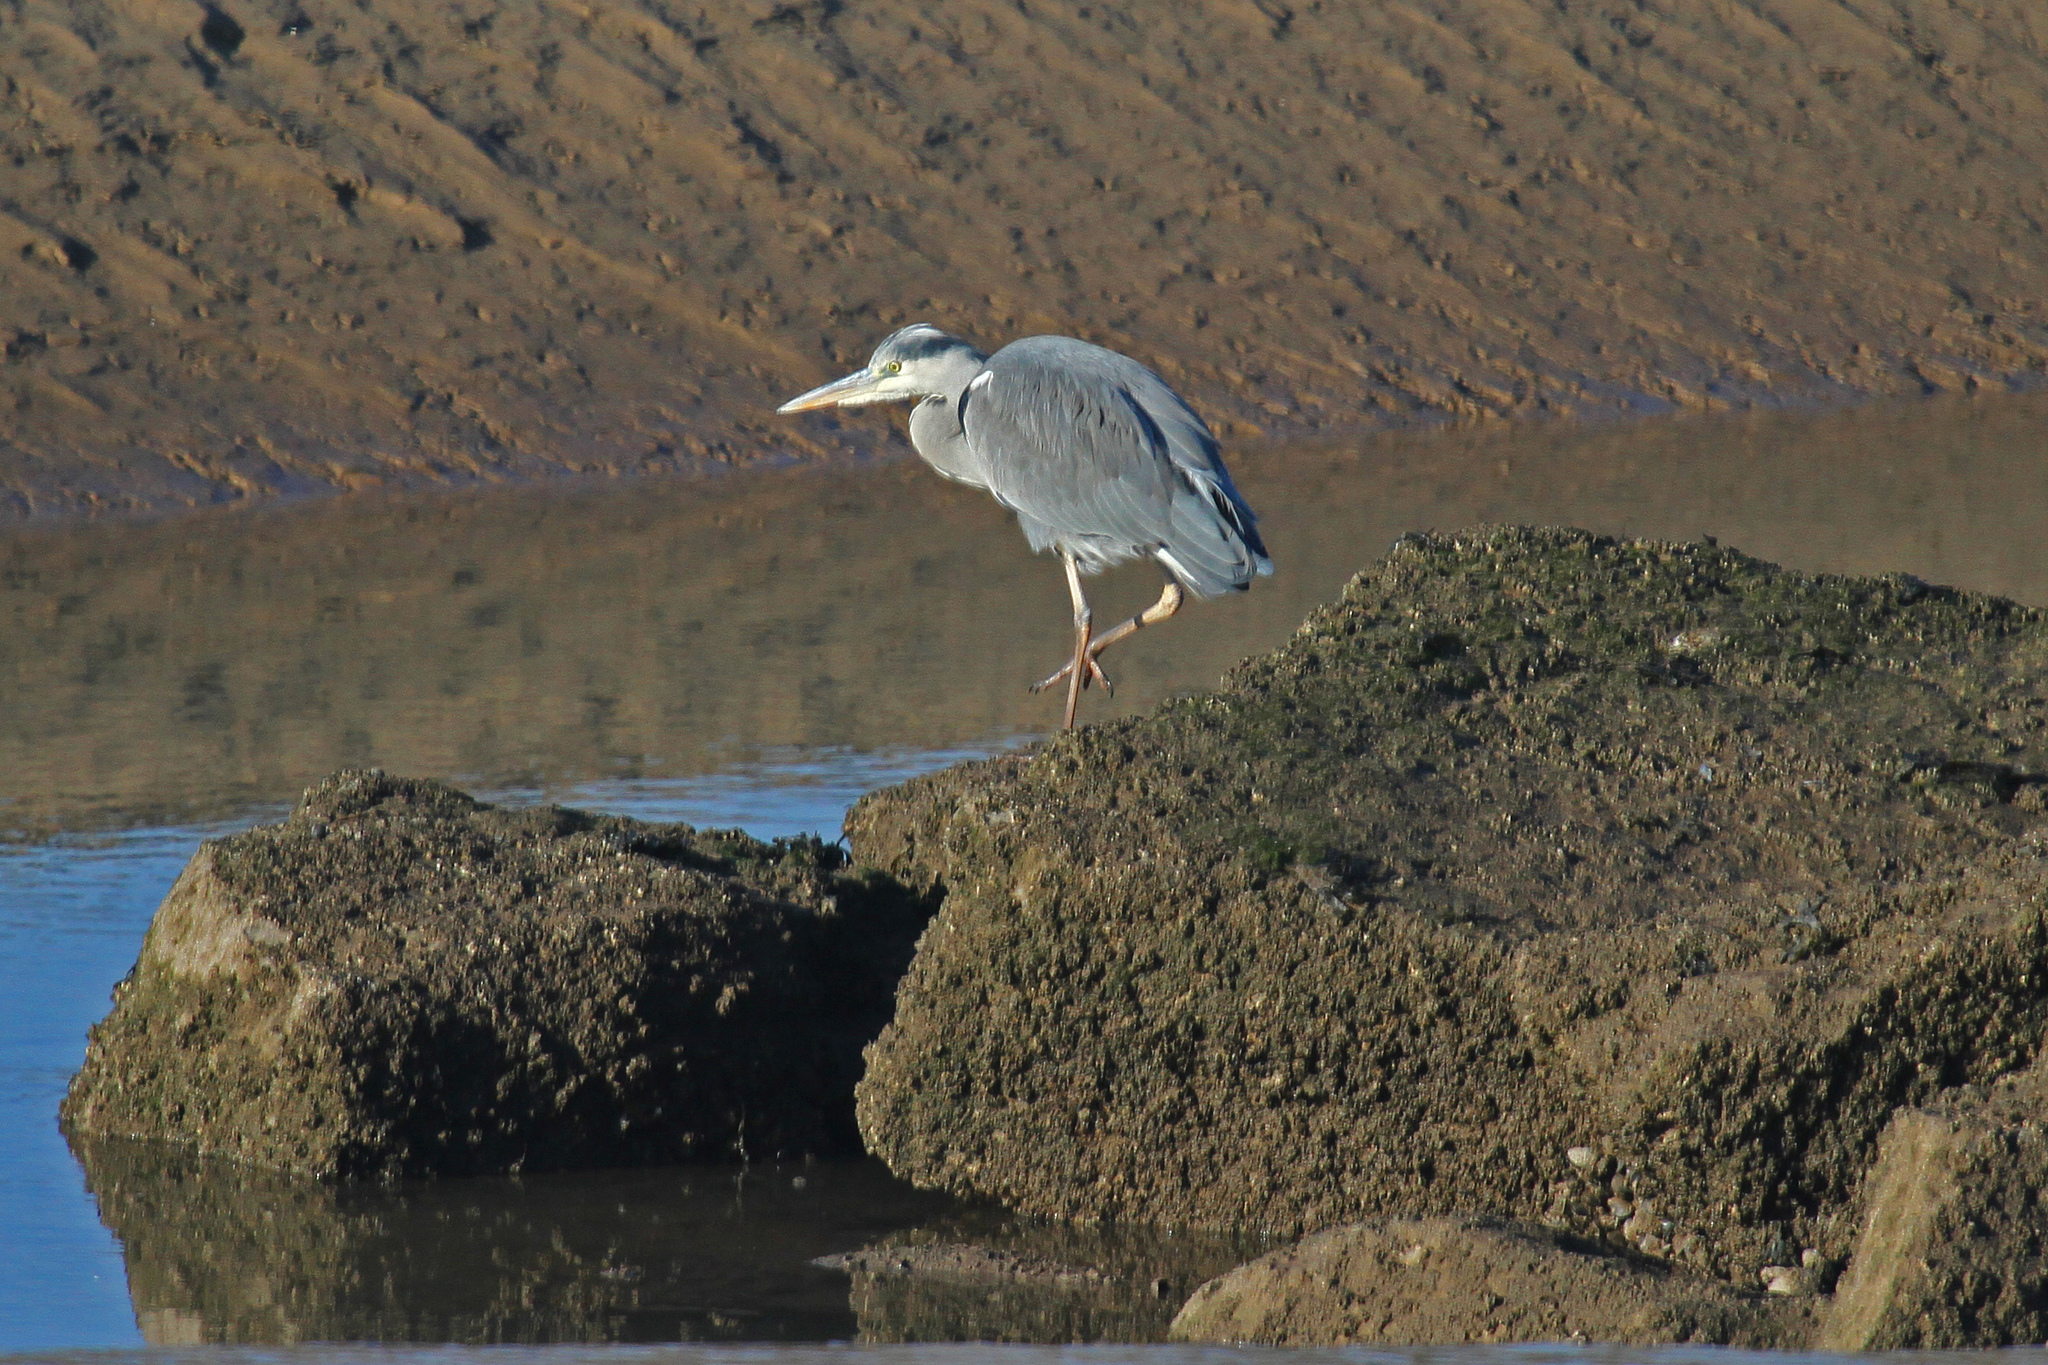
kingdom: Animalia
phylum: Chordata
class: Aves
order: Pelecaniformes
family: Ardeidae
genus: Ardea
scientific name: Ardea cinerea
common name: Grey heron
